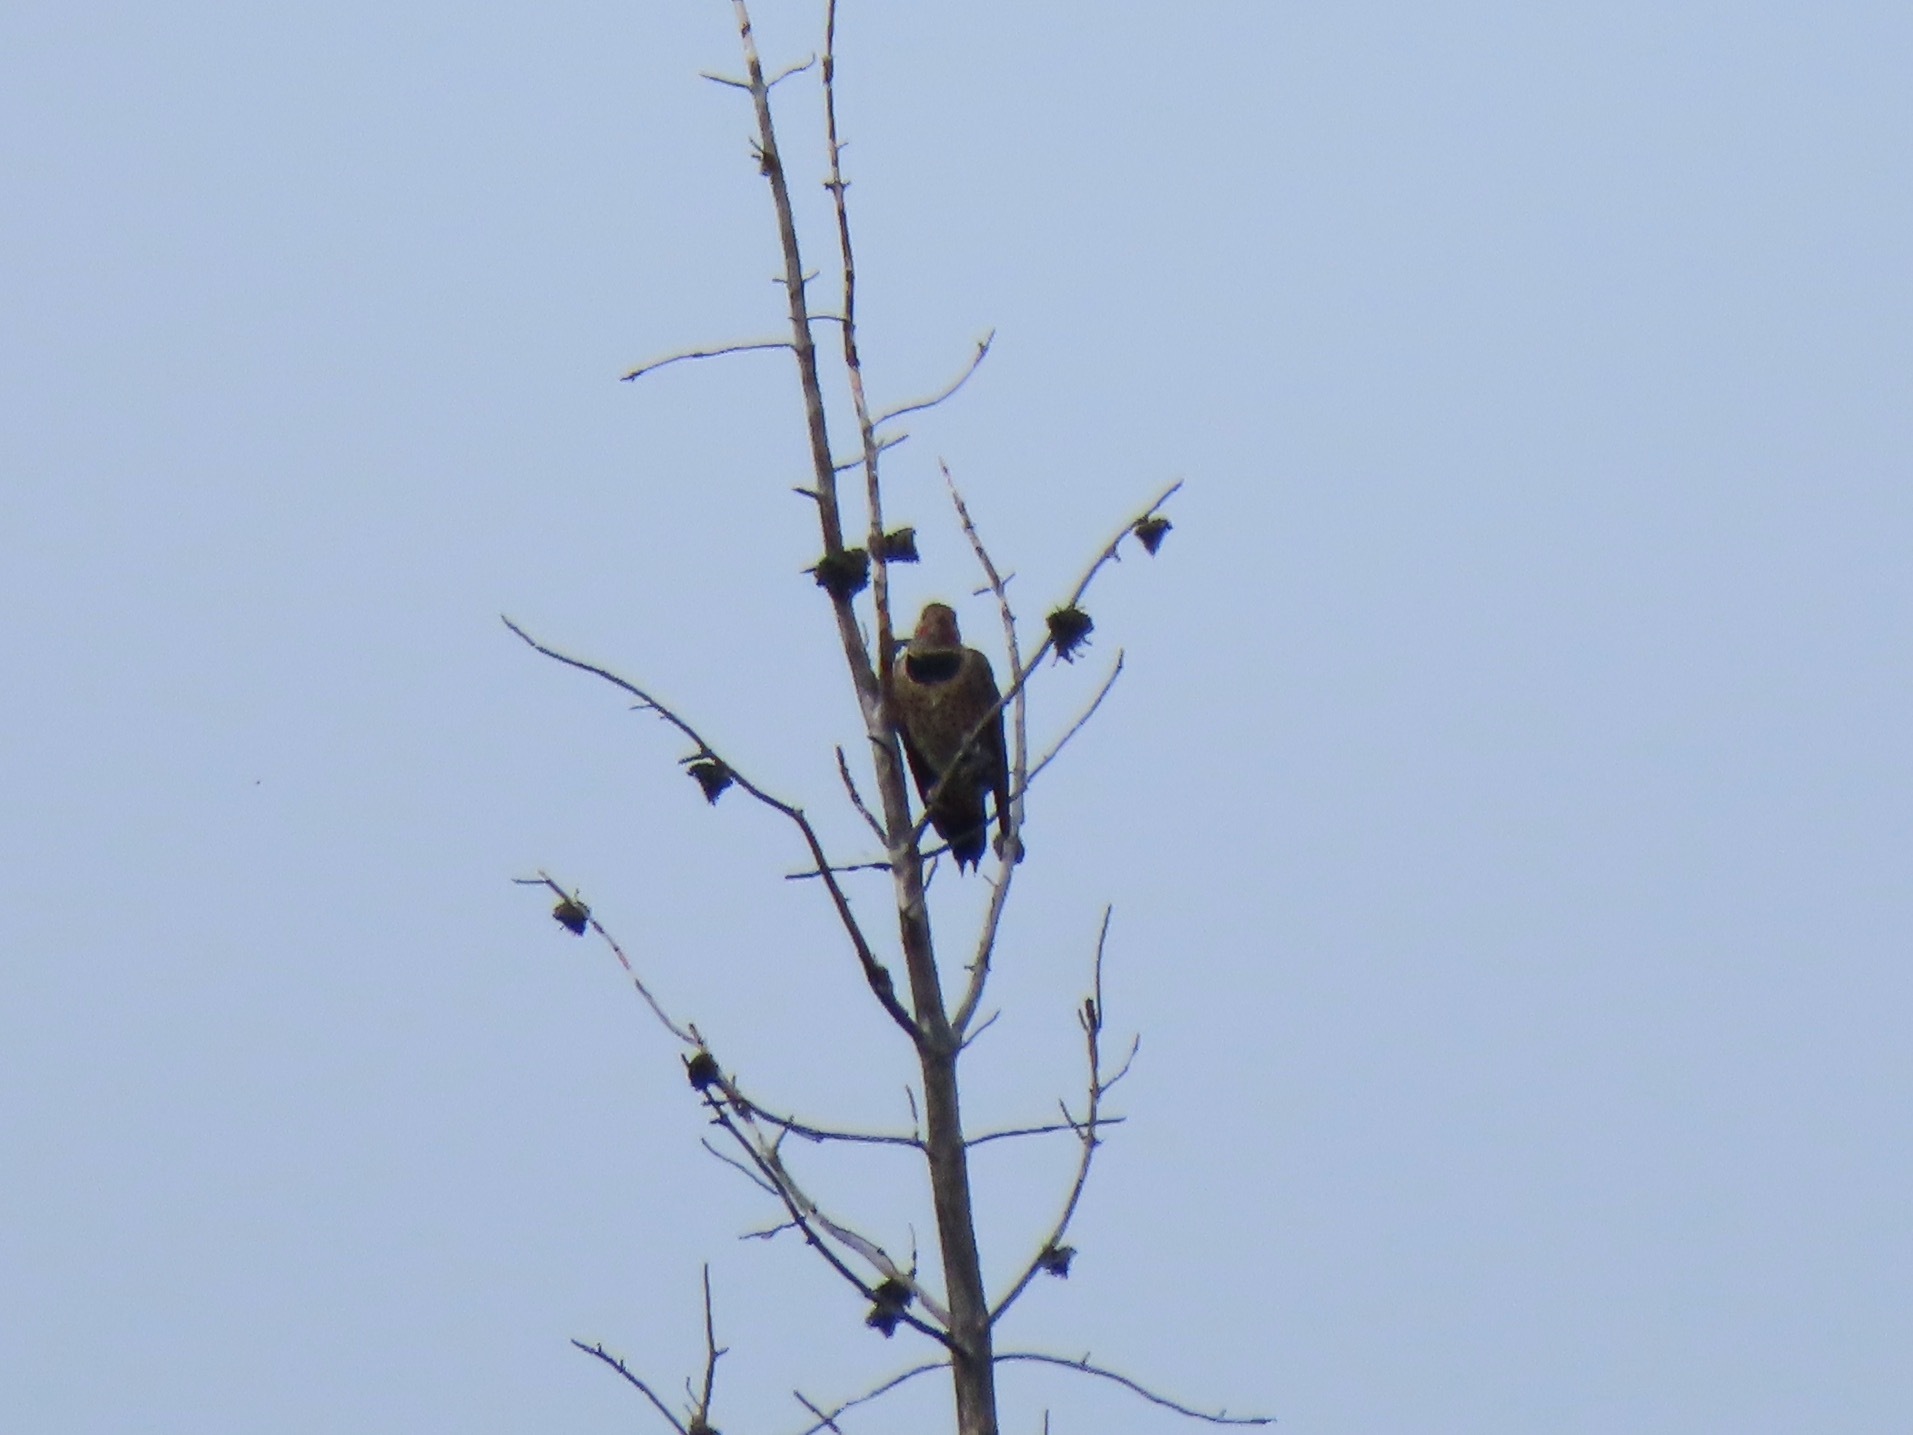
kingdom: Animalia
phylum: Chordata
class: Aves
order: Piciformes
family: Picidae
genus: Colaptes
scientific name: Colaptes auratus
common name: Northern flicker
